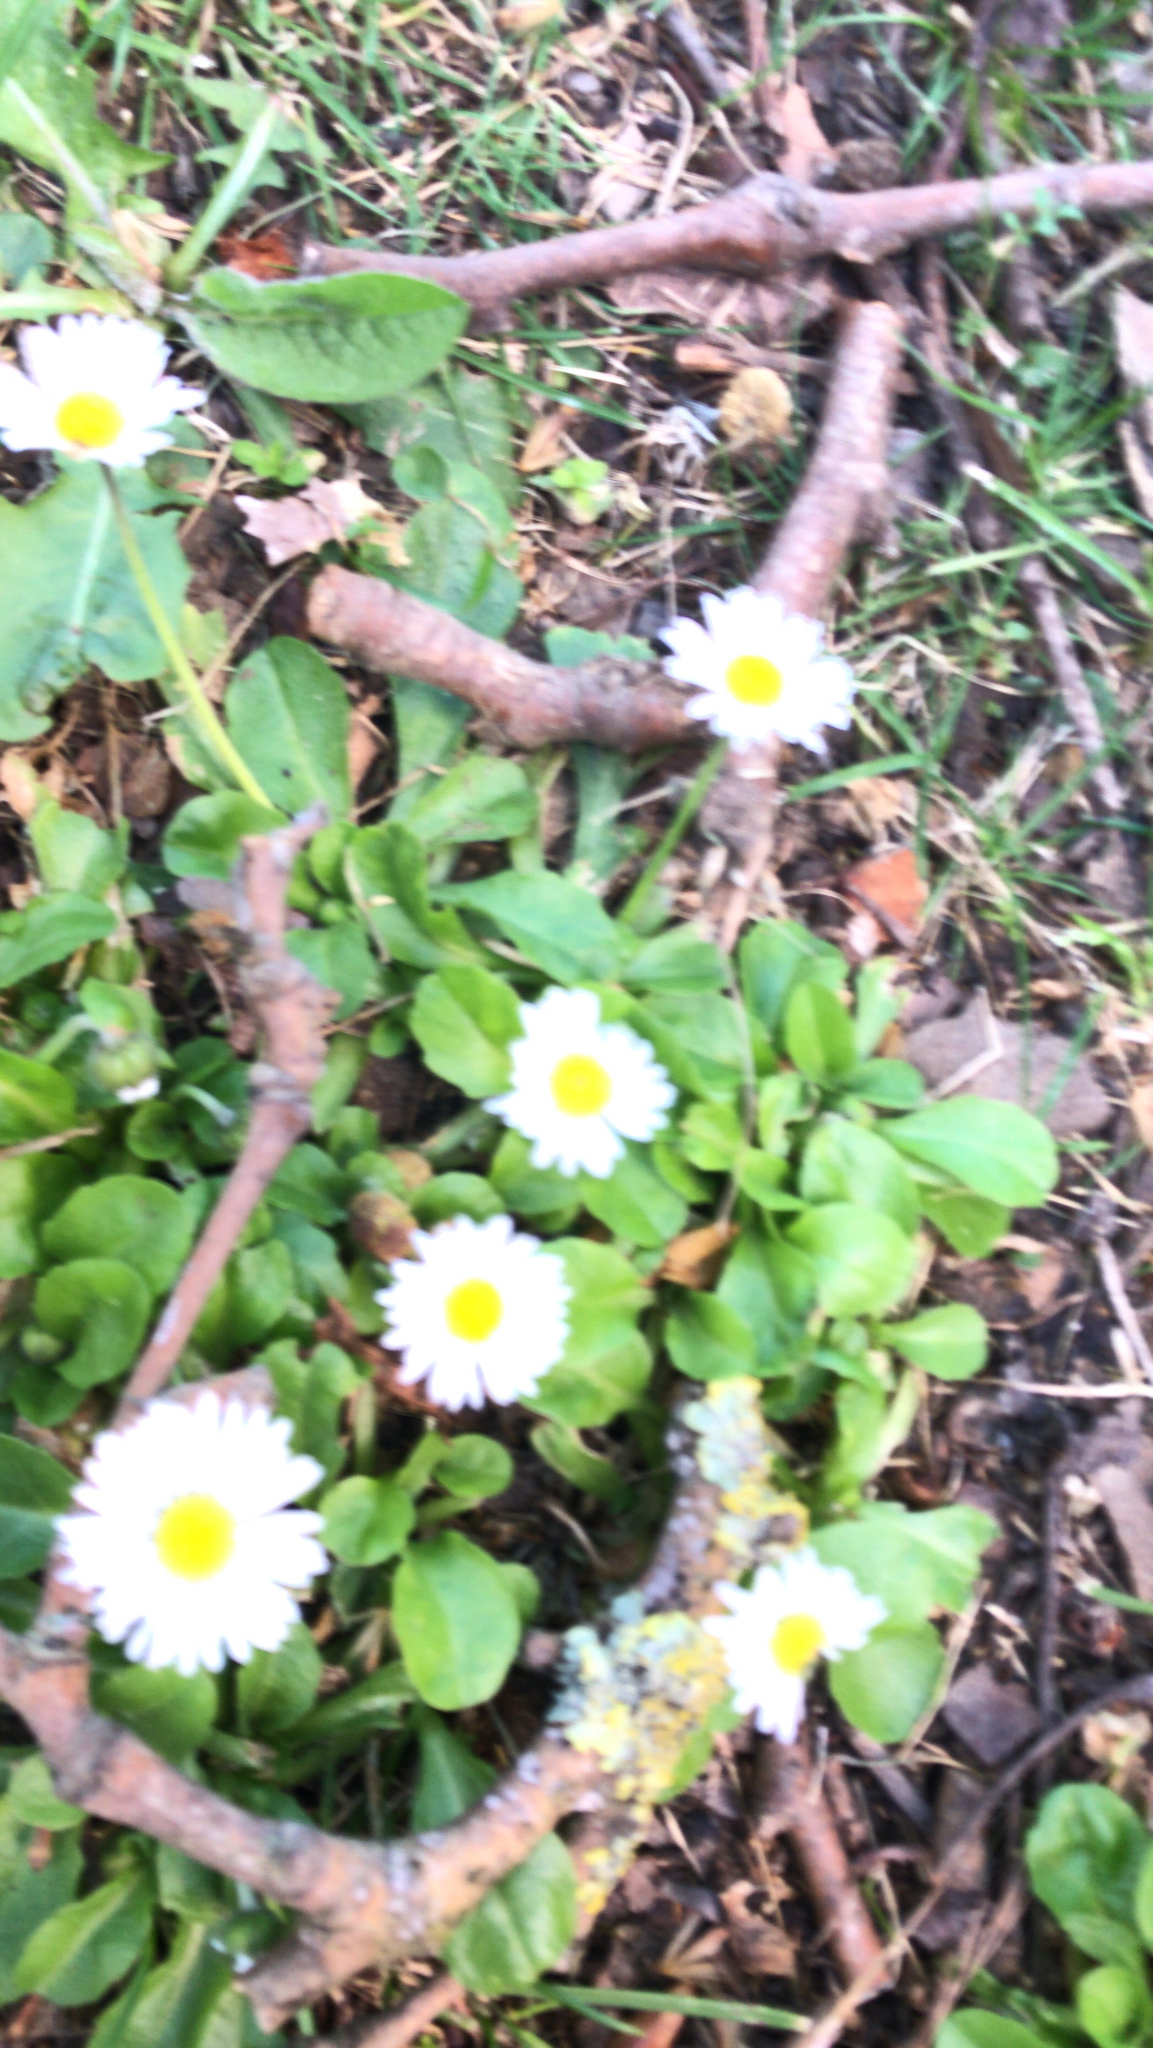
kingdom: Plantae
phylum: Tracheophyta
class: Magnoliopsida
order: Asterales
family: Asteraceae
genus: Bellis
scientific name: Bellis perennis
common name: Lawndaisy
